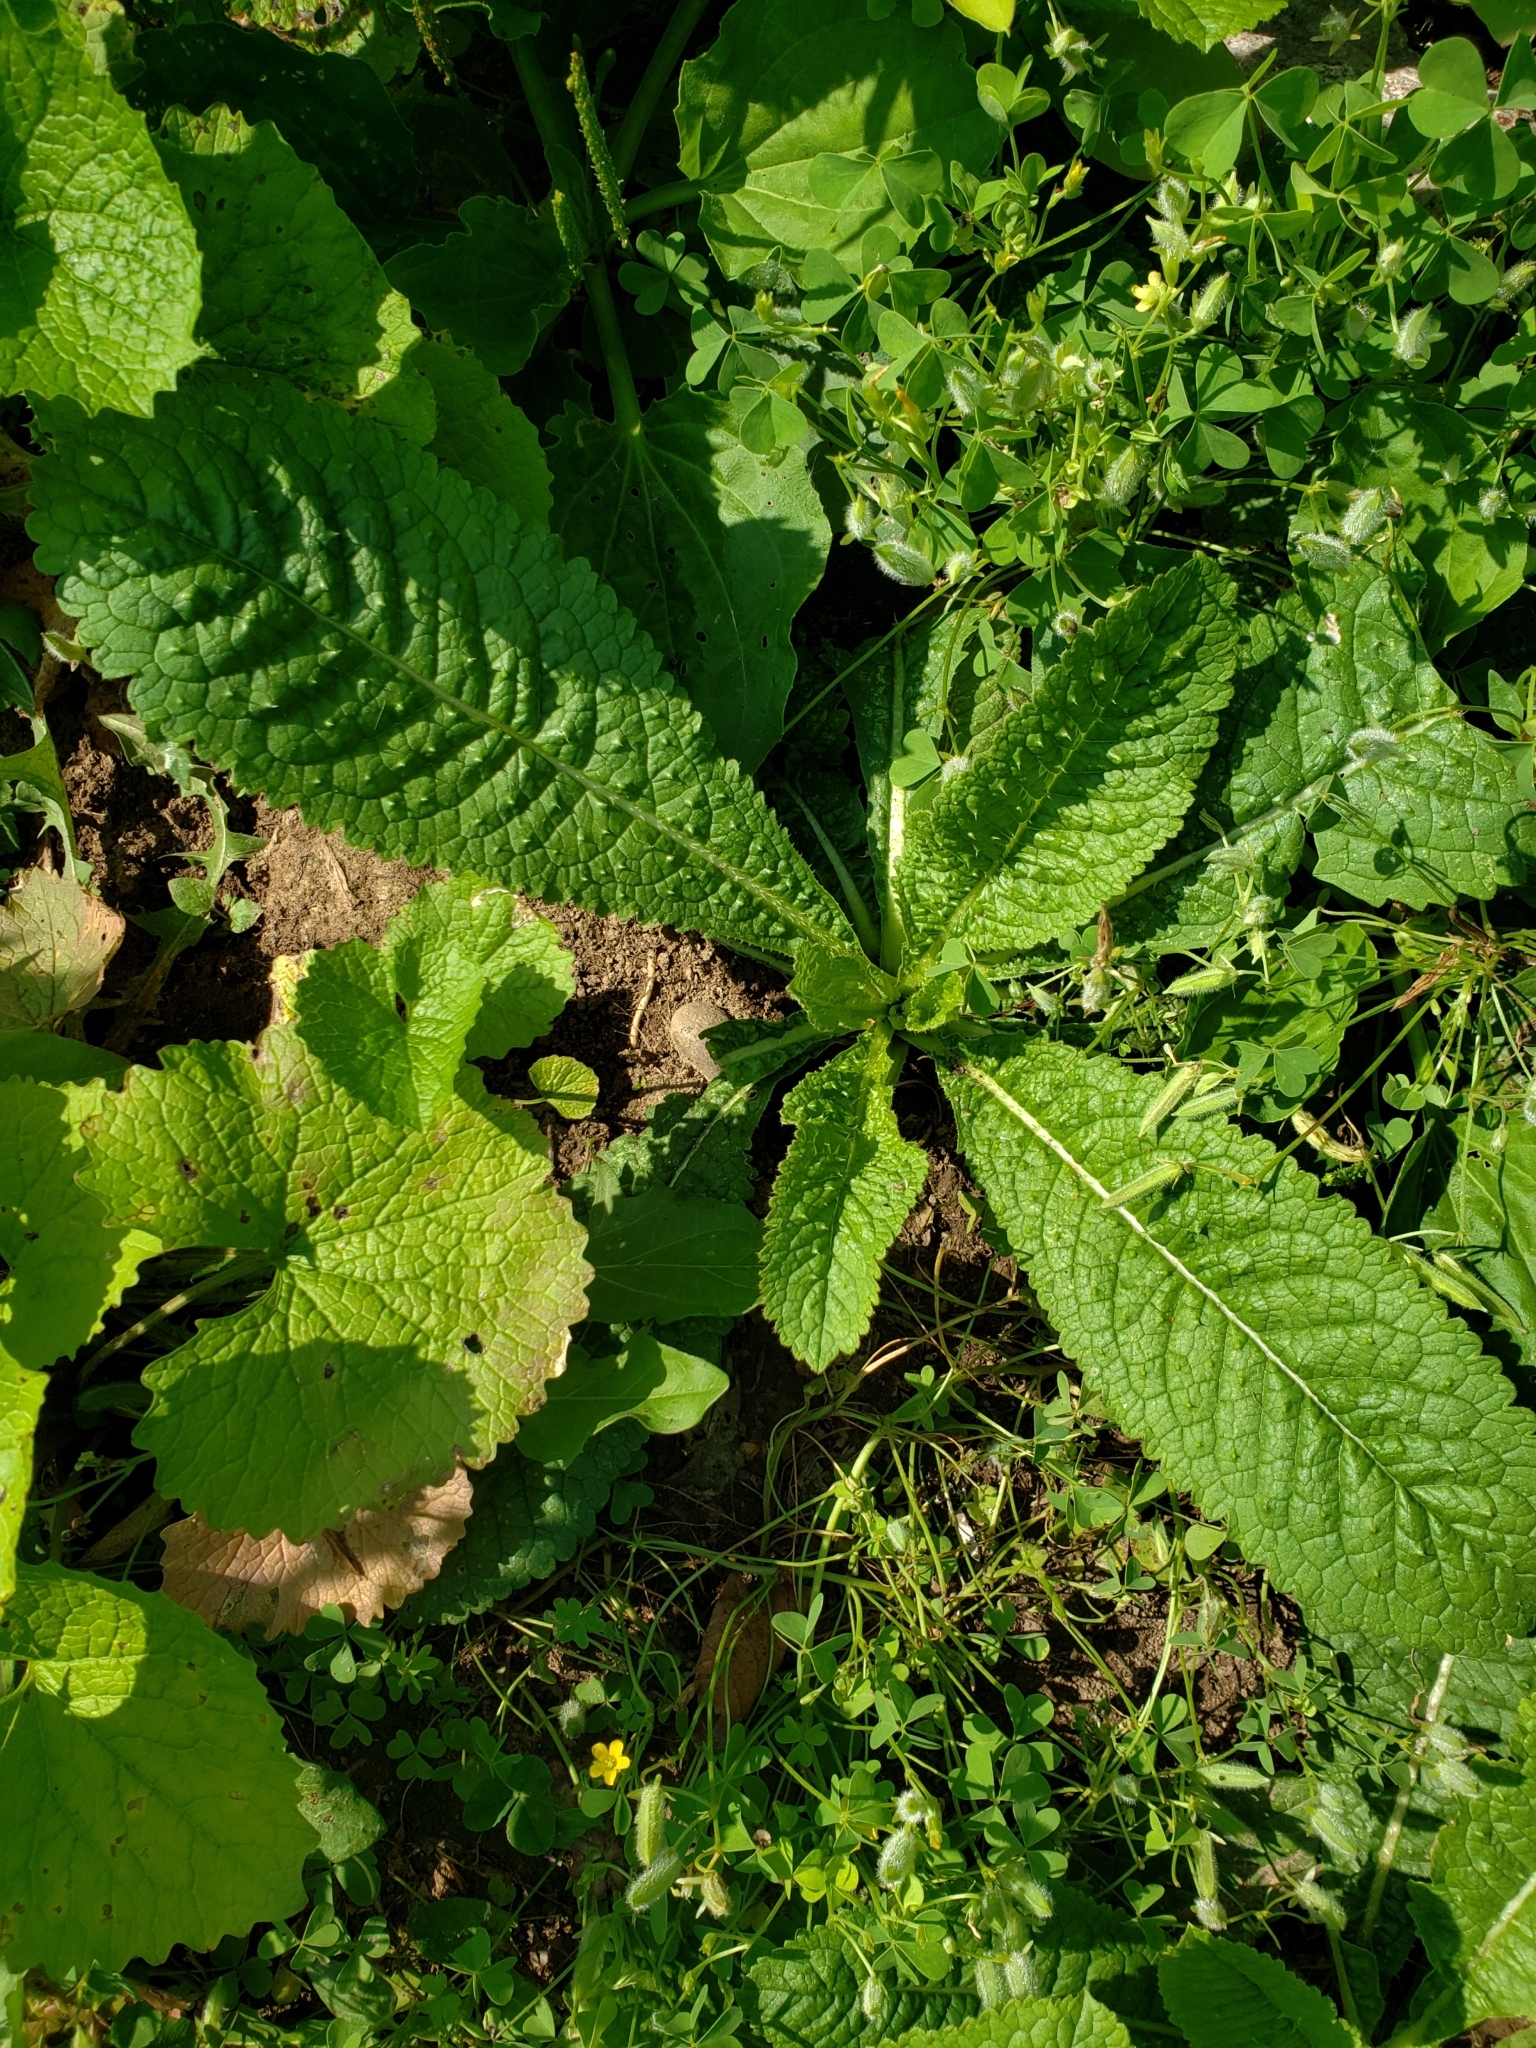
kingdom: Plantae
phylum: Tracheophyta
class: Magnoliopsida
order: Dipsacales
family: Caprifoliaceae
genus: Dipsacus
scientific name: Dipsacus fullonum
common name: Teasel
